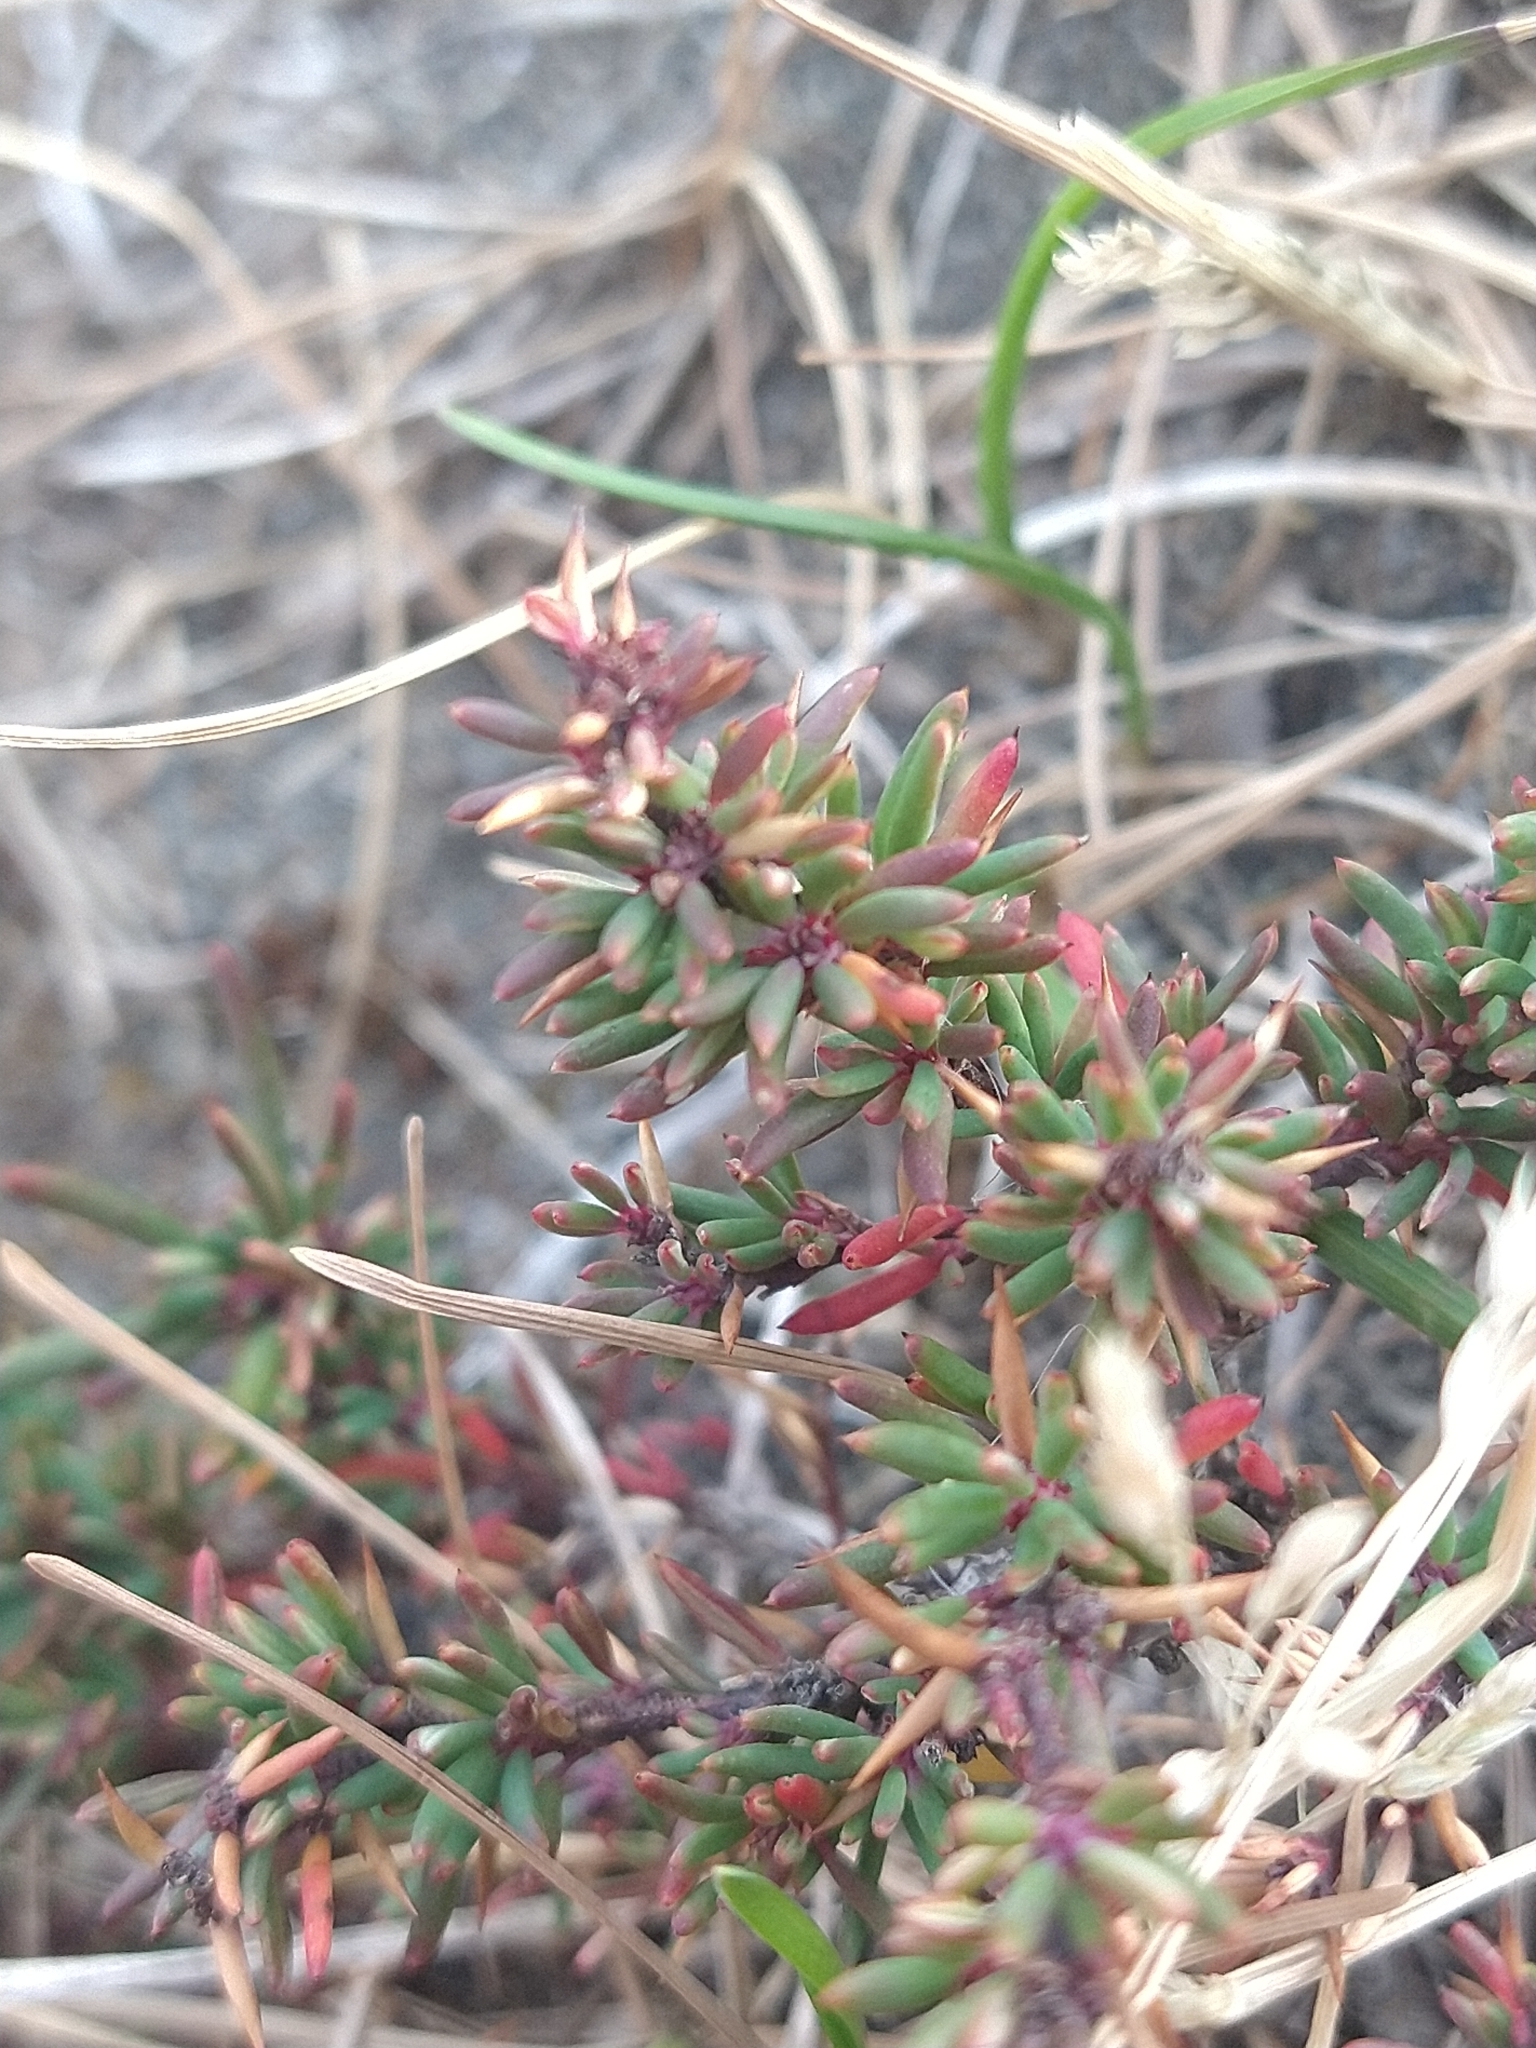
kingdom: Plantae
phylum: Tracheophyta
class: Magnoliopsida
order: Ranunculales
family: Berberidaceae
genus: Berberis
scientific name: Berberis empetrifolia
